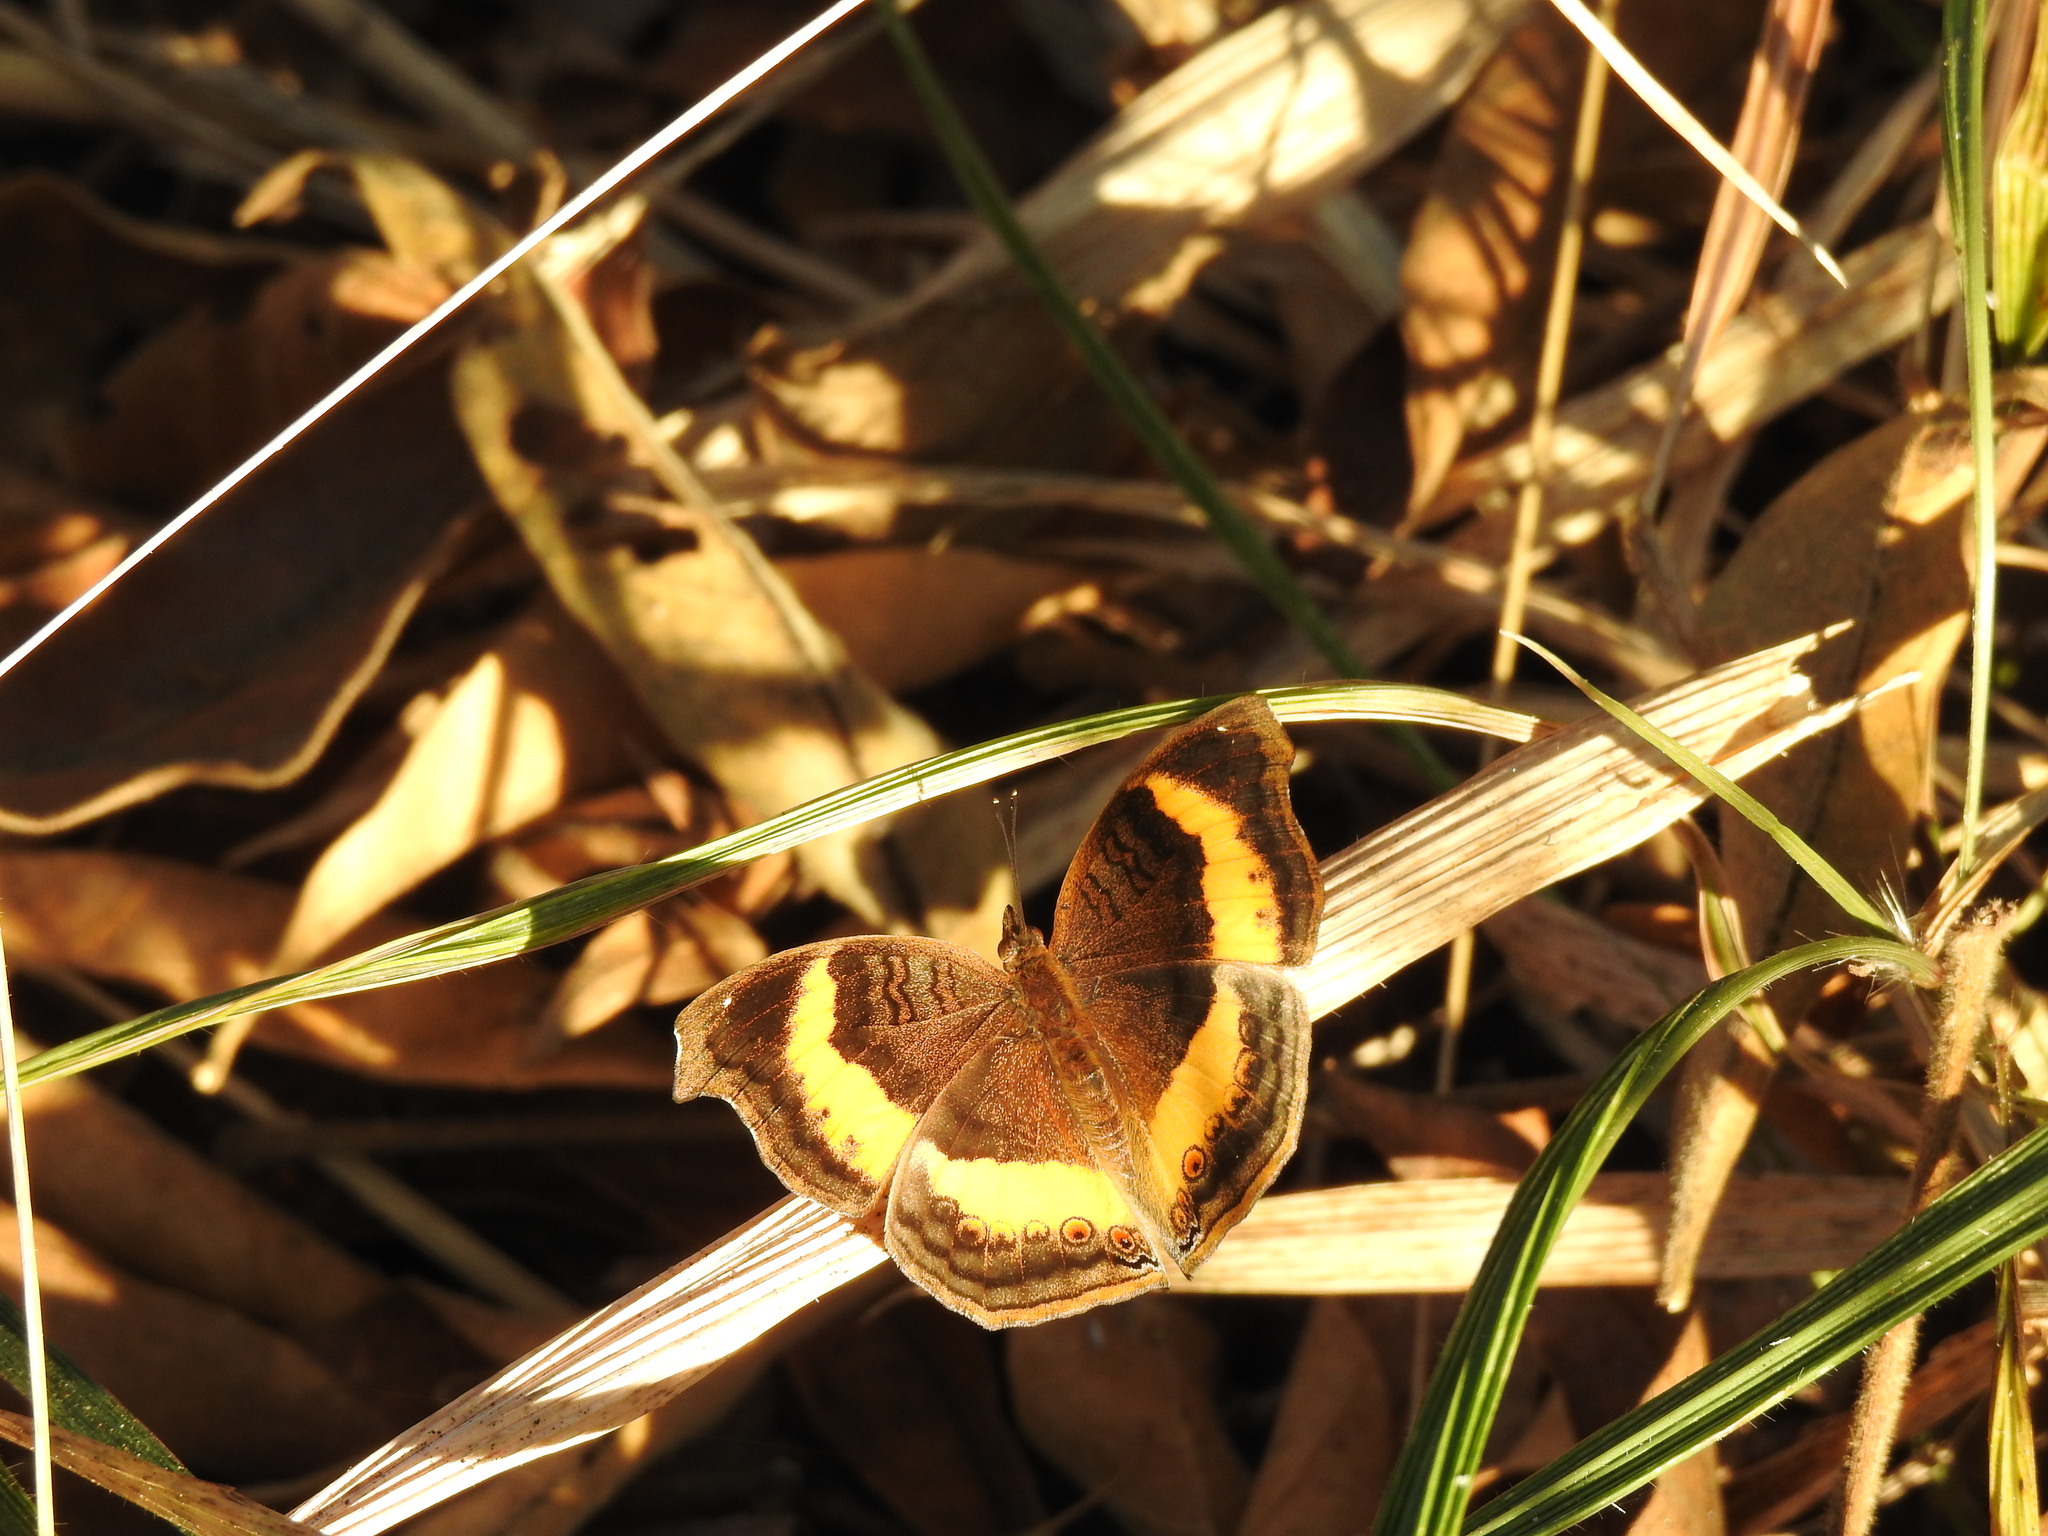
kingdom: Animalia
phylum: Arthropoda
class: Insecta
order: Lepidoptera
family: Nymphalidae
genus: Junonia
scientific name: Junonia terea
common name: Soldier pansy
